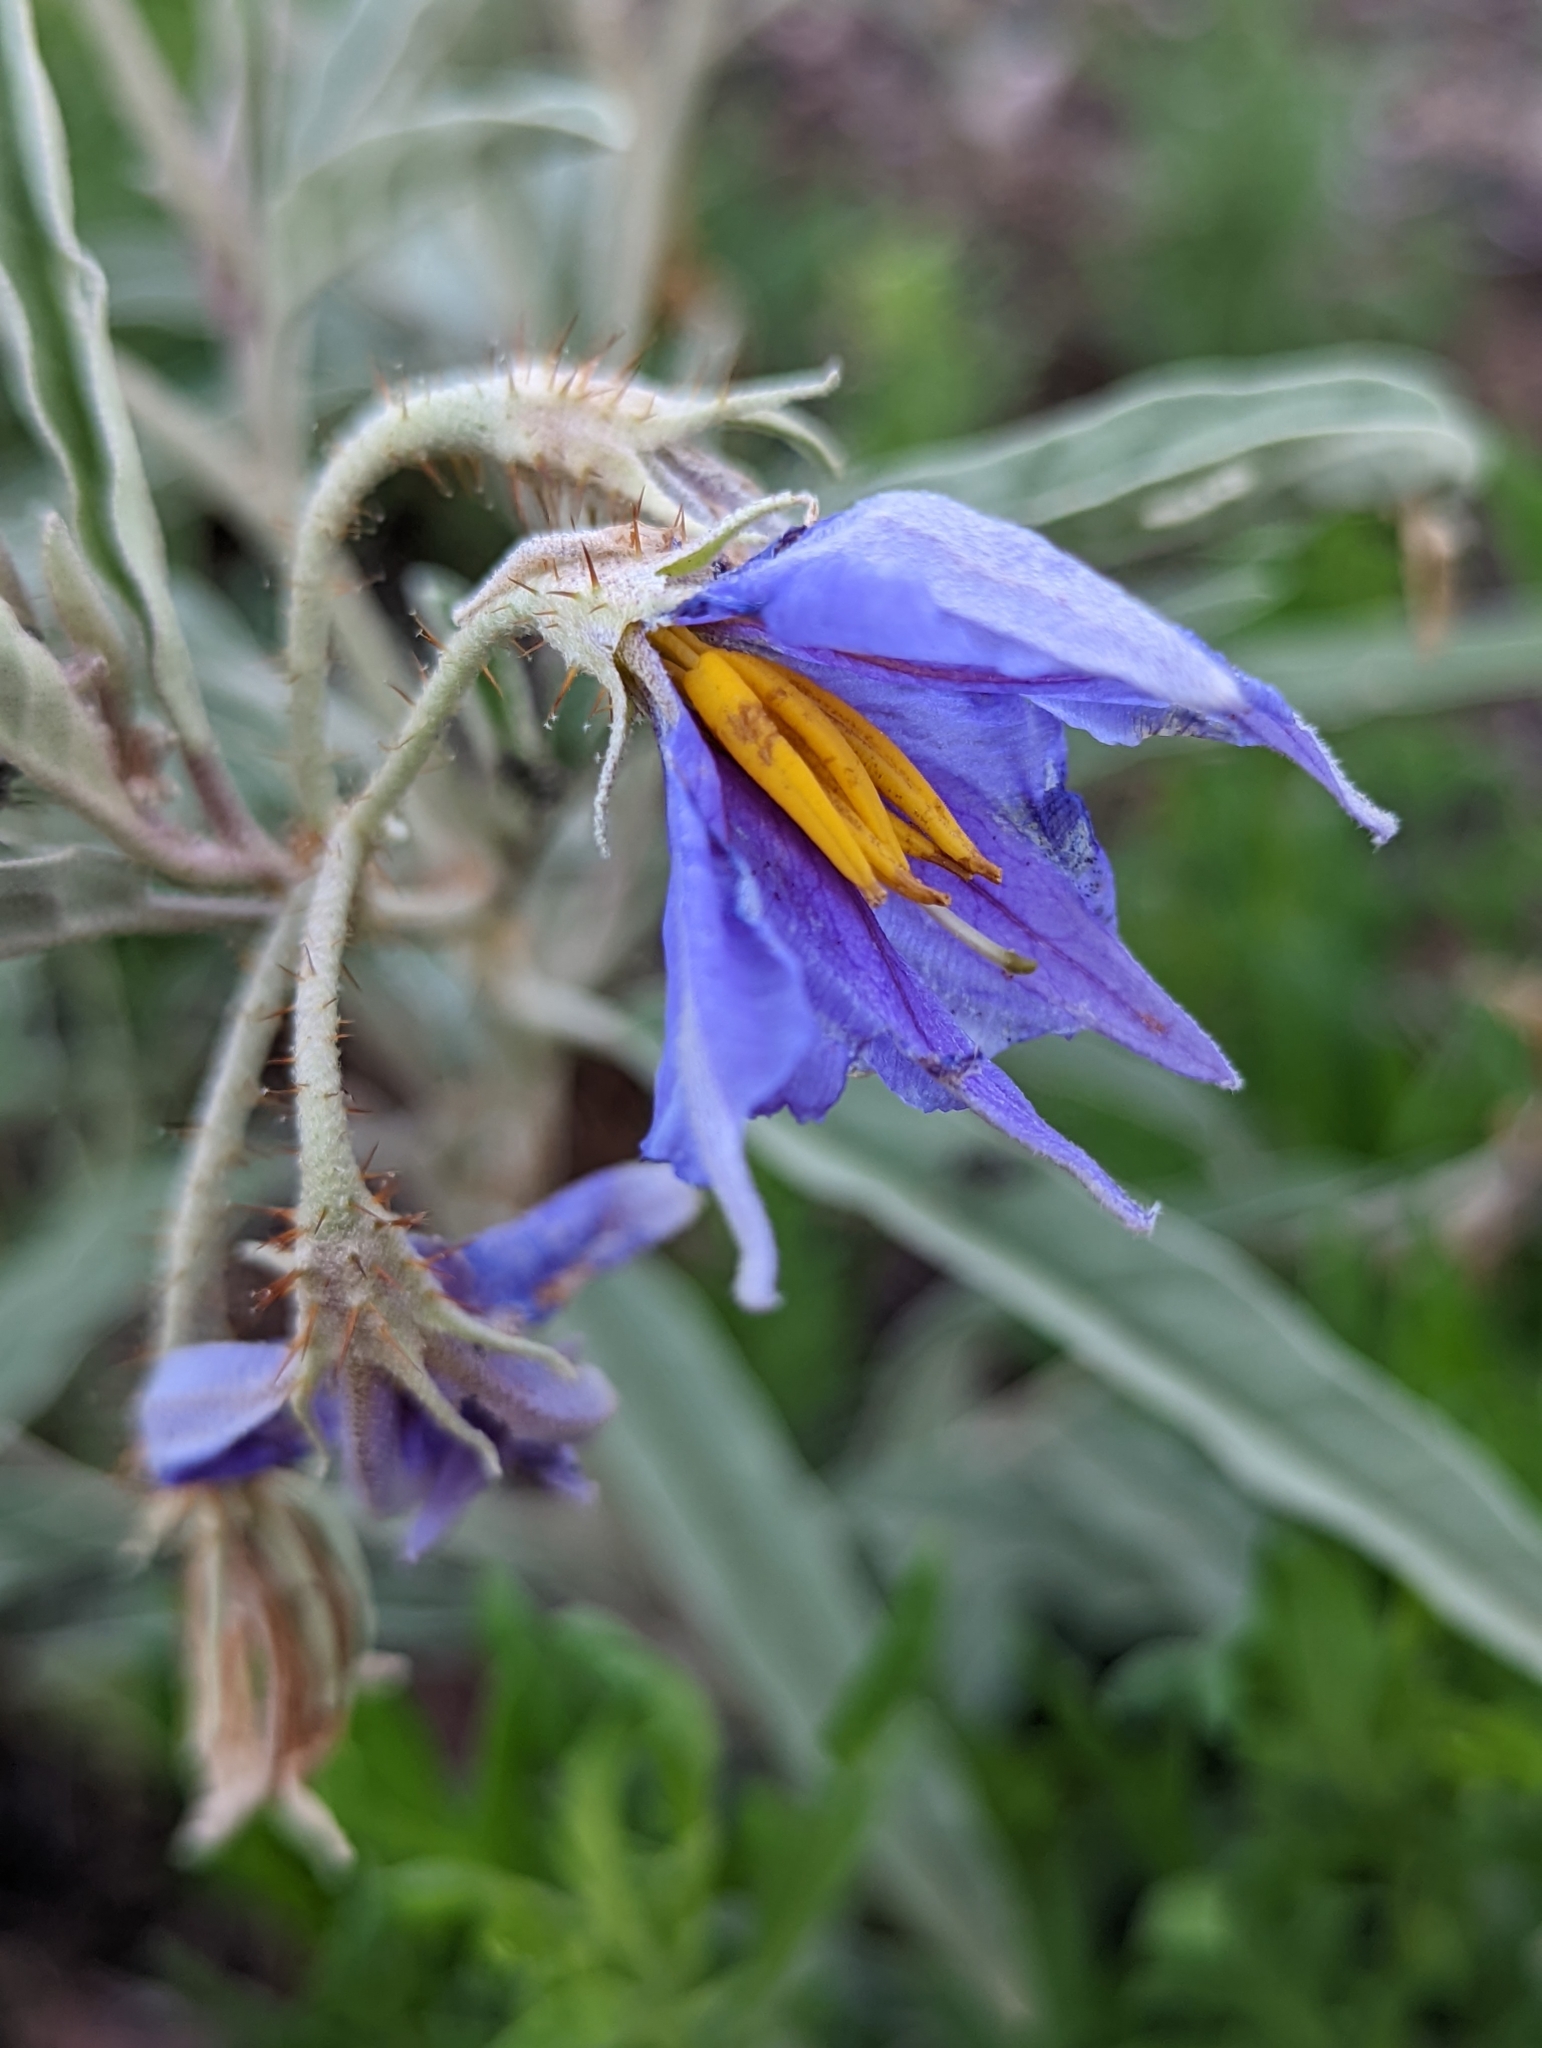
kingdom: Plantae
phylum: Tracheophyta
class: Magnoliopsida
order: Solanales
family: Solanaceae
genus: Solanum
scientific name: Solanum elaeagnifolium
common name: Silverleaf nightshade
